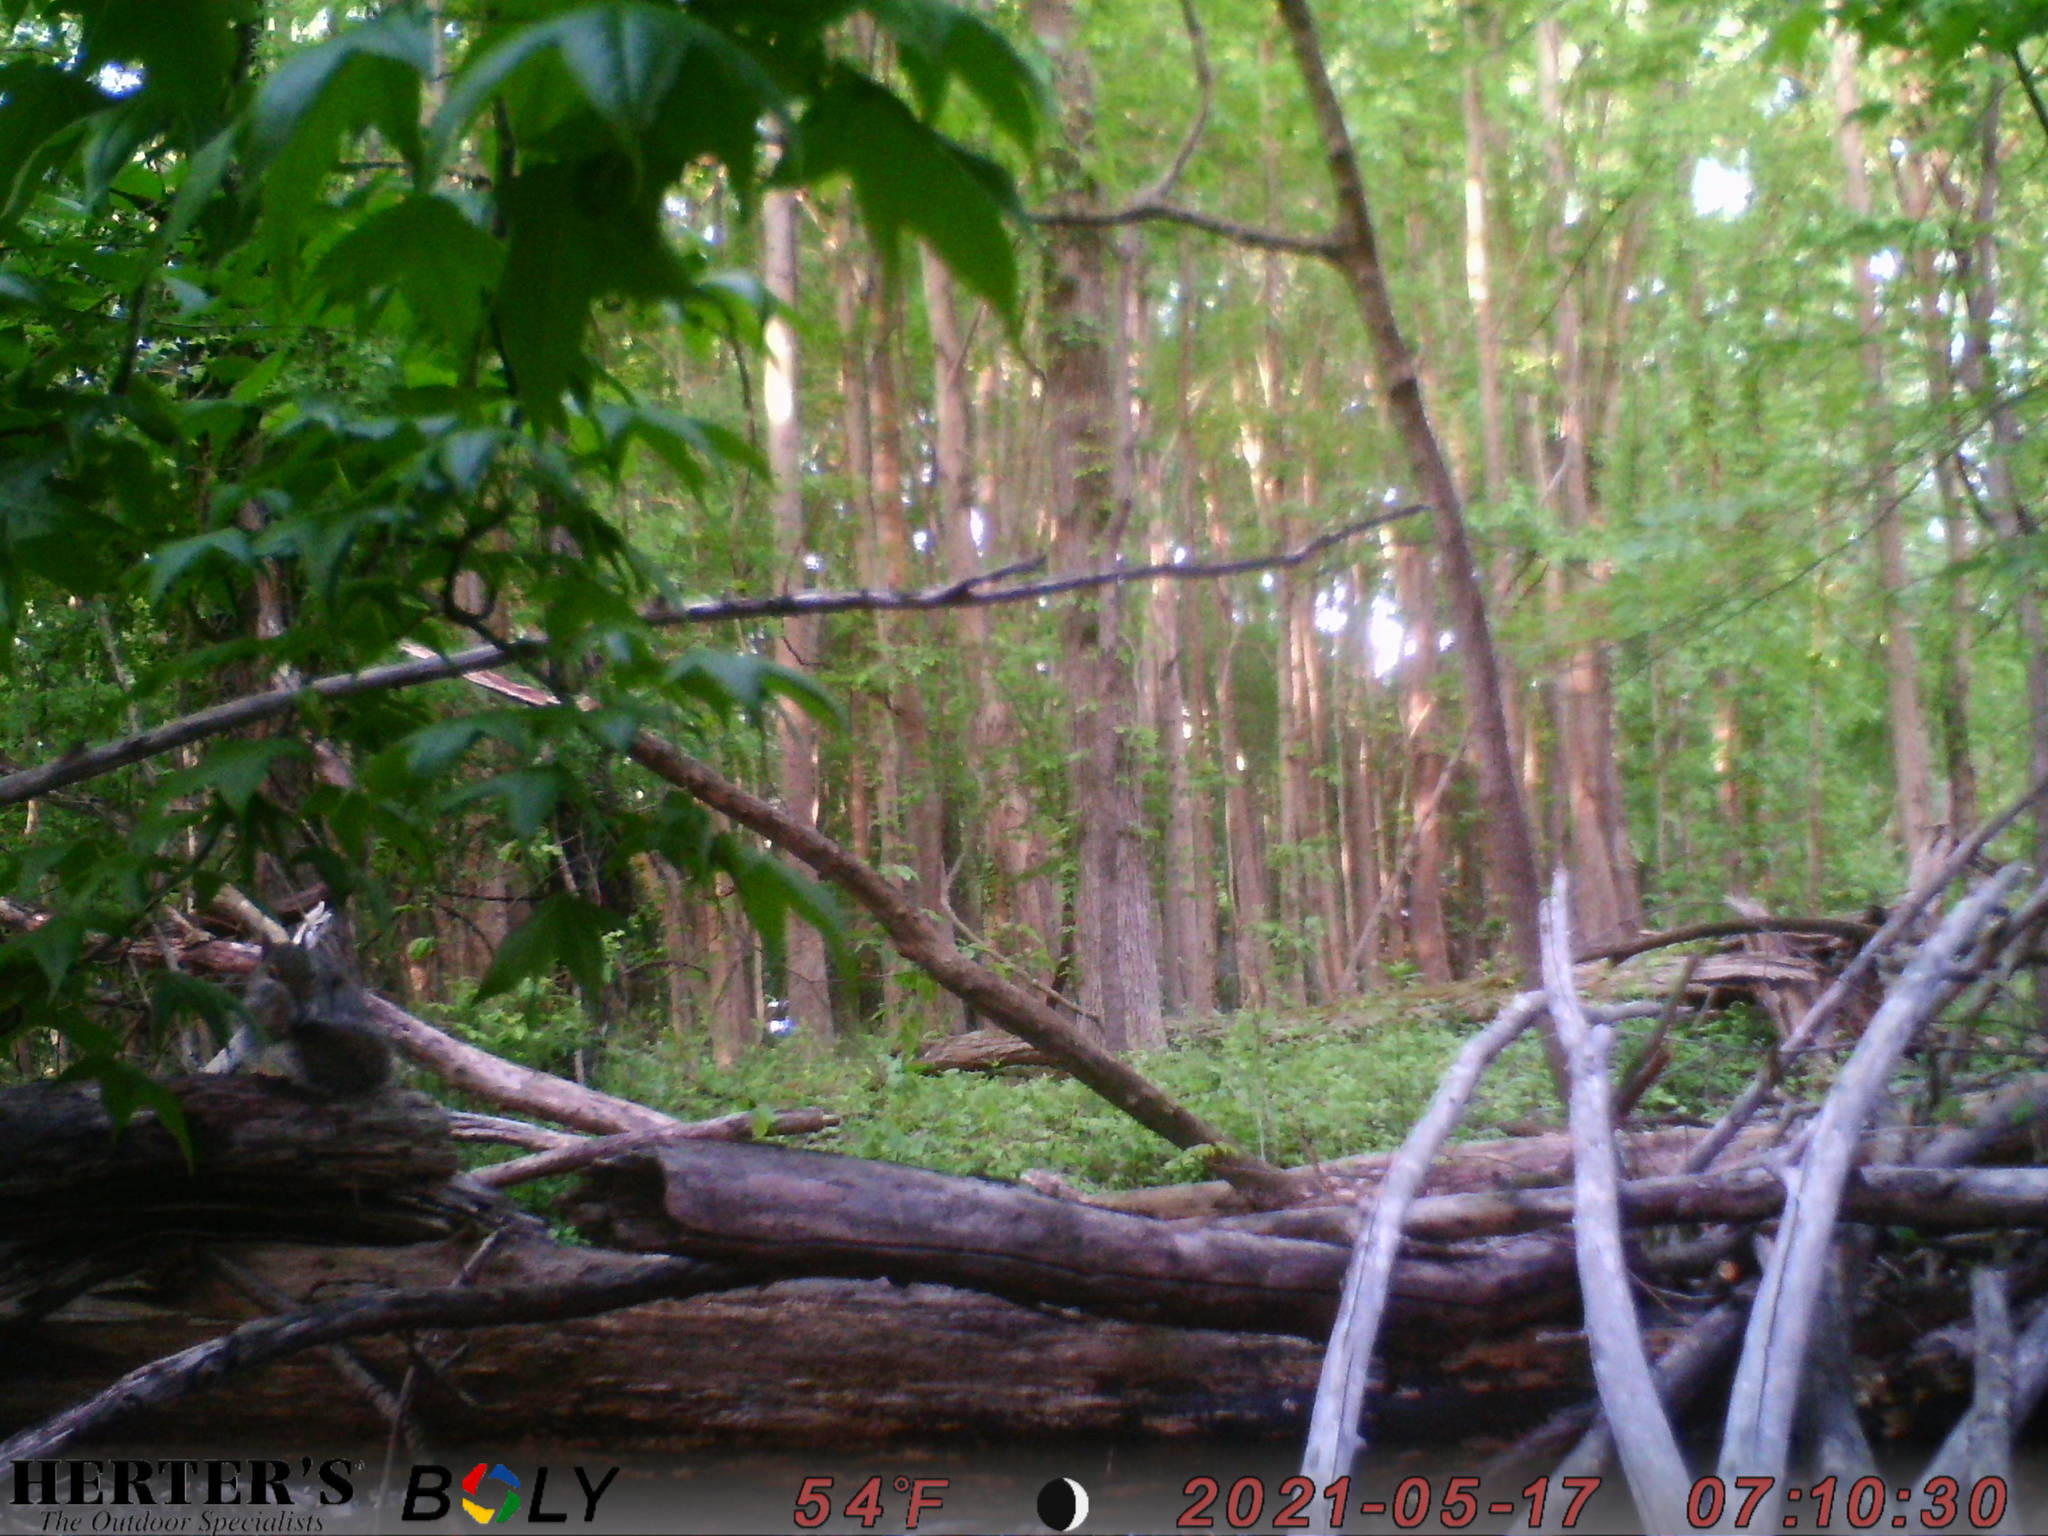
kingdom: Animalia
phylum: Chordata
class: Mammalia
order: Rodentia
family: Sciuridae
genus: Sciurus
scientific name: Sciurus carolinensis
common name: Eastern gray squirrel
